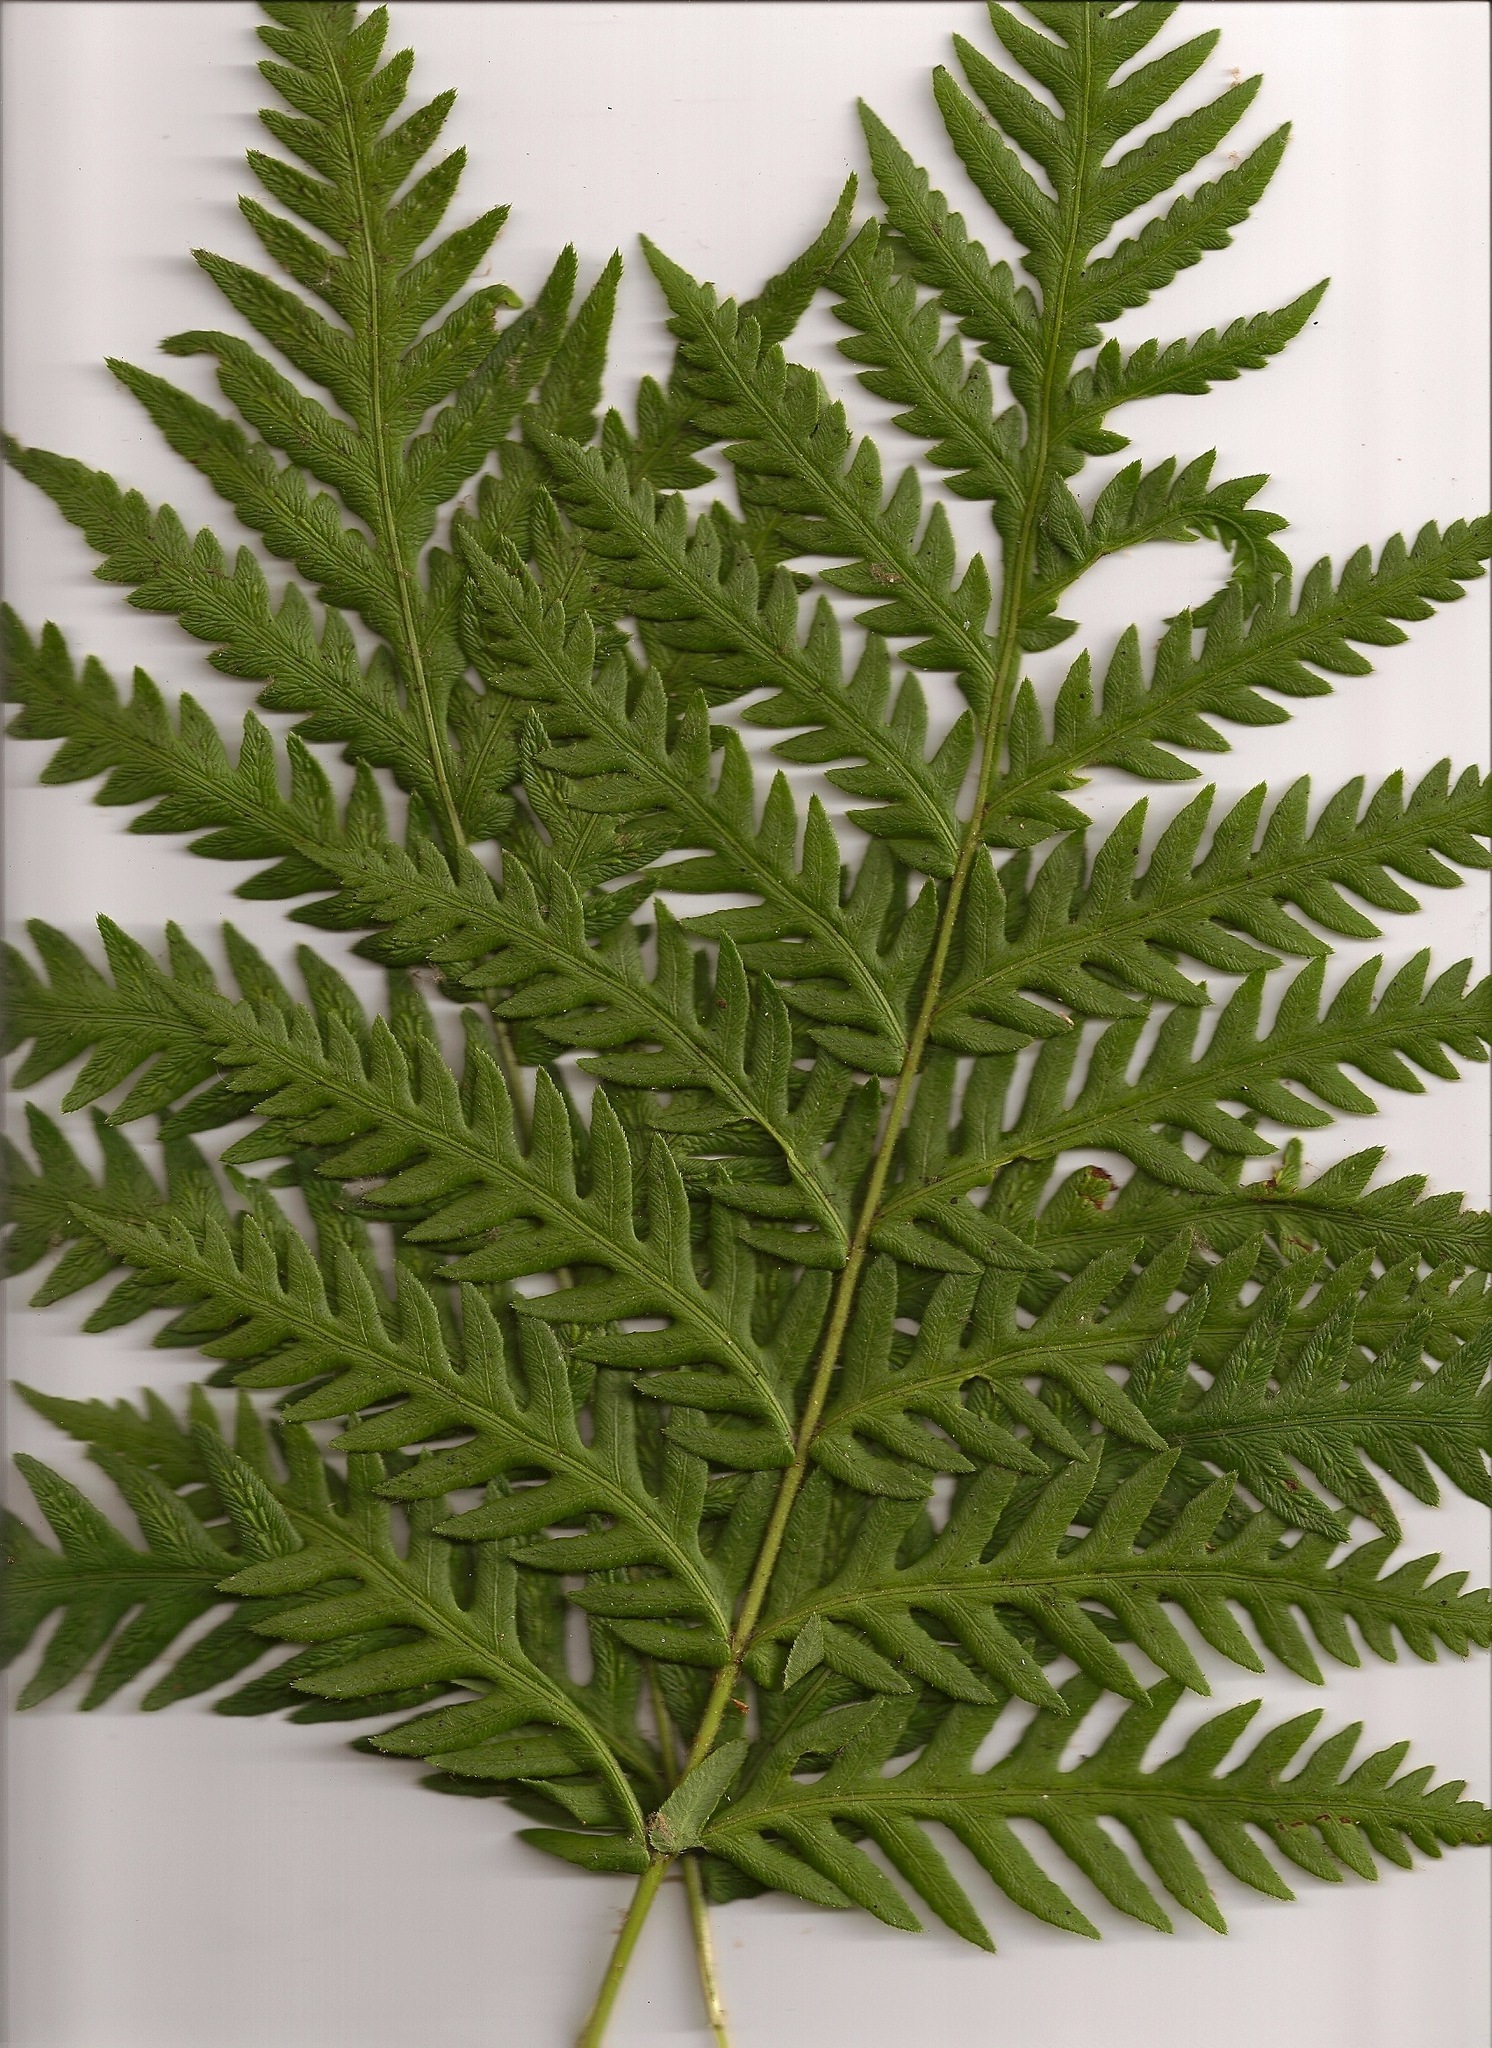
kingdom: Plantae
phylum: Tracheophyta
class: Polypodiopsida
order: Polypodiales
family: Blechnaceae
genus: Woodwardia
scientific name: Woodwardia fimbriata
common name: Giant chain fern
